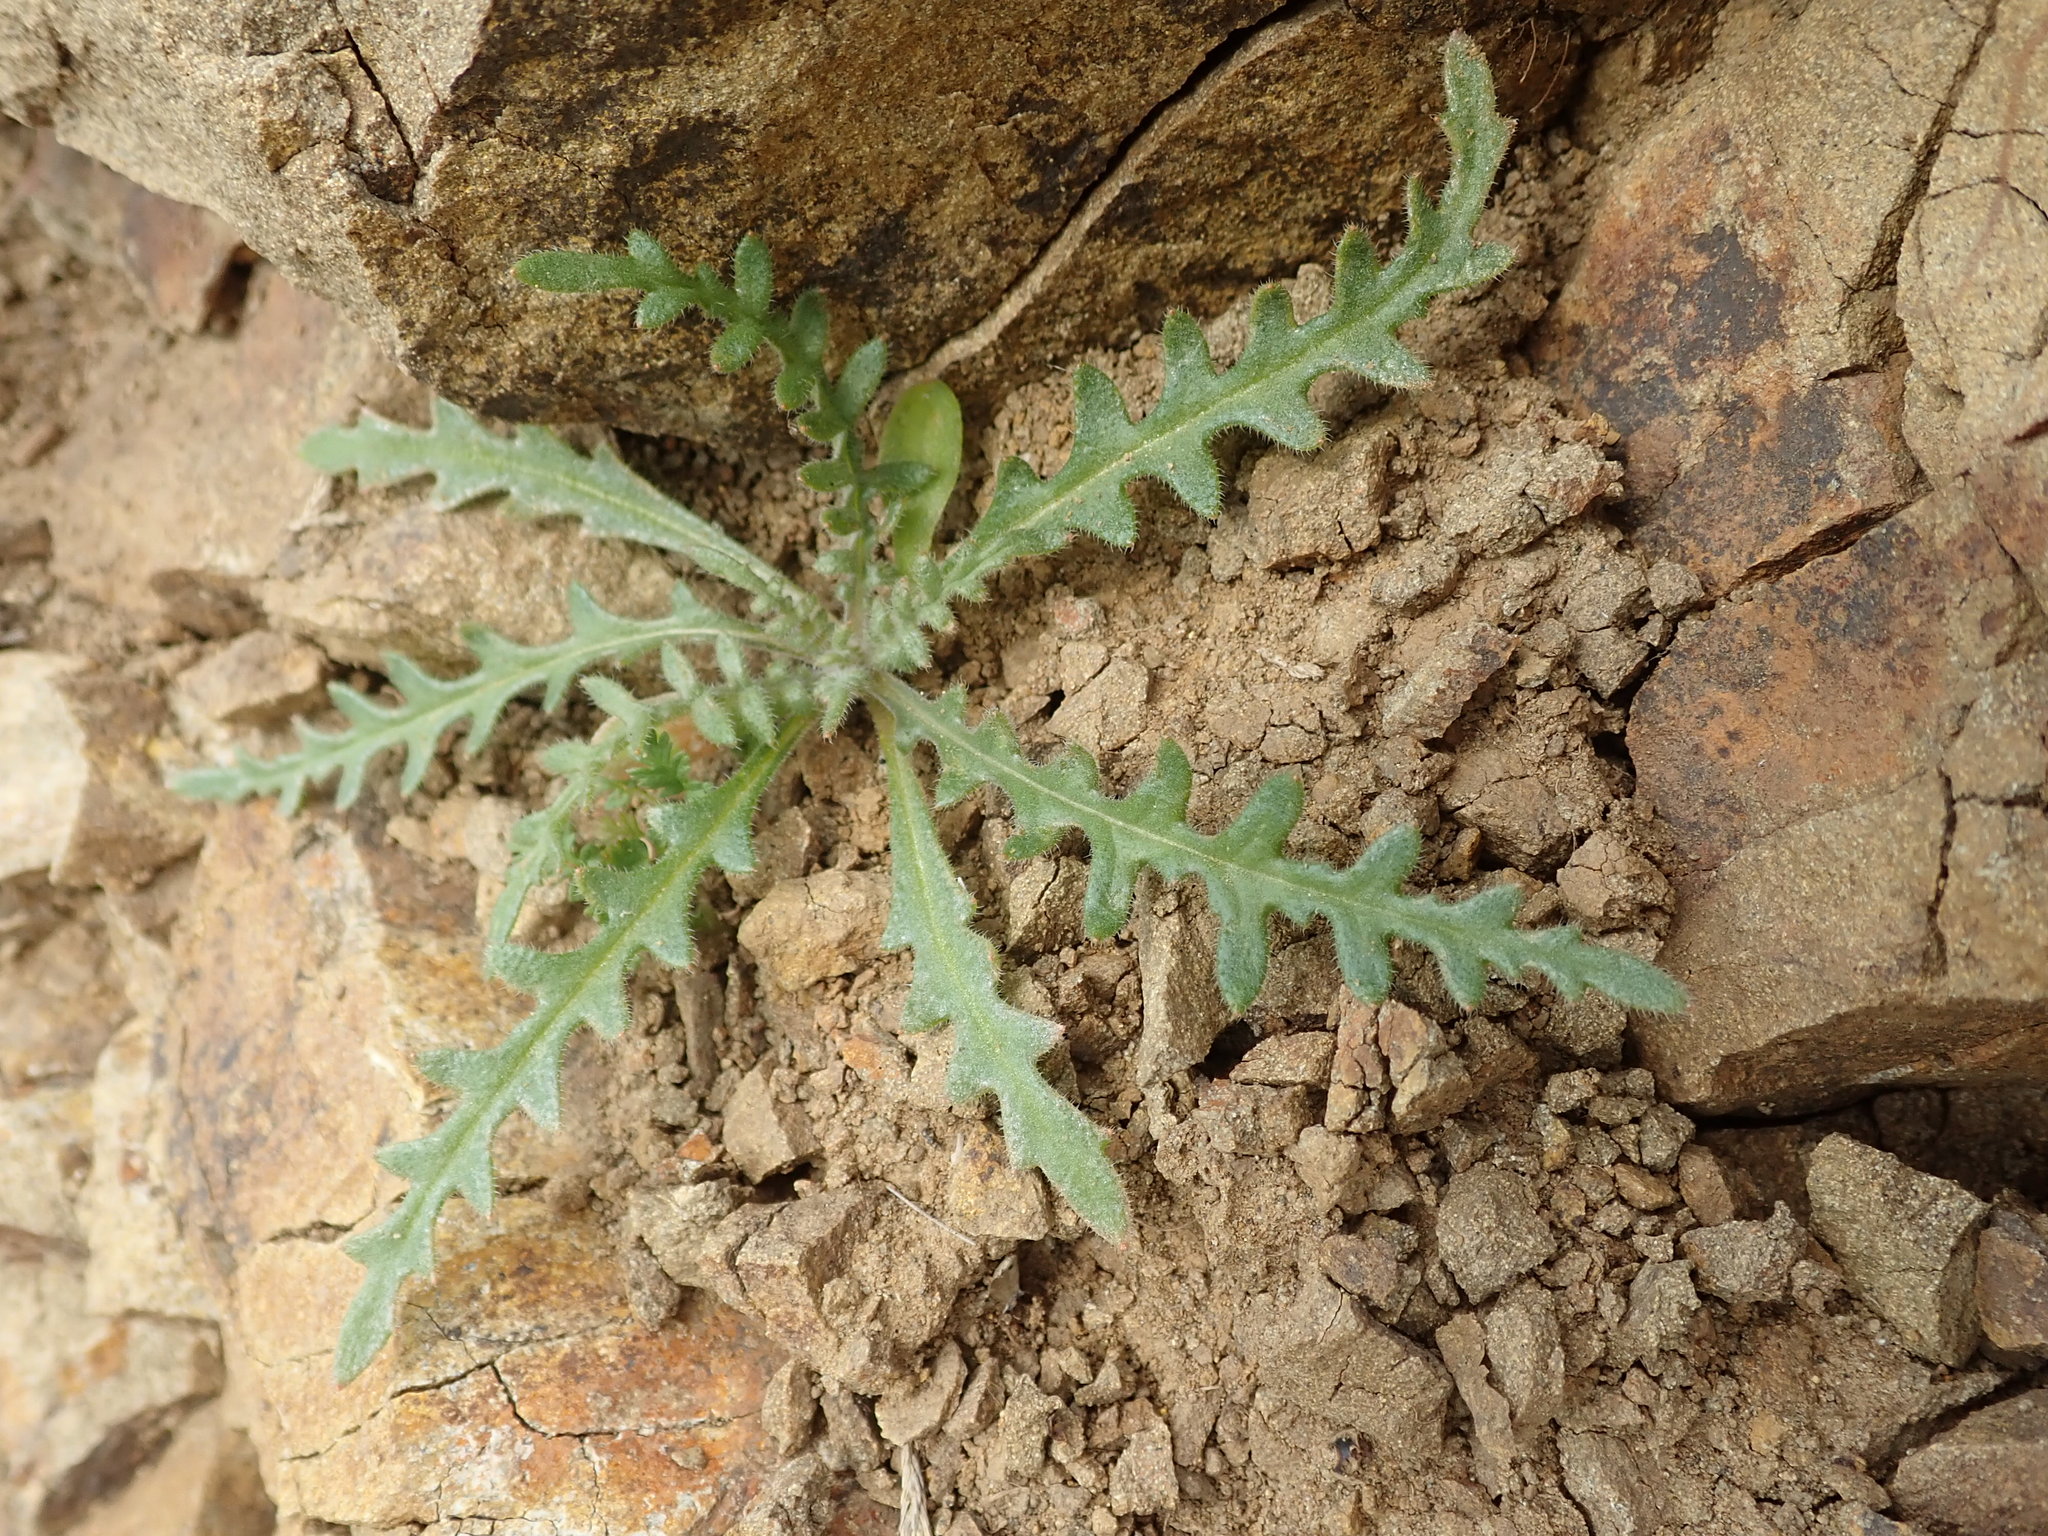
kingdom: Plantae
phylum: Tracheophyta
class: Magnoliopsida
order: Cornales
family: Loasaceae
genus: Mentzelia
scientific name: Mentzelia lindleyi
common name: Golden bartonia
